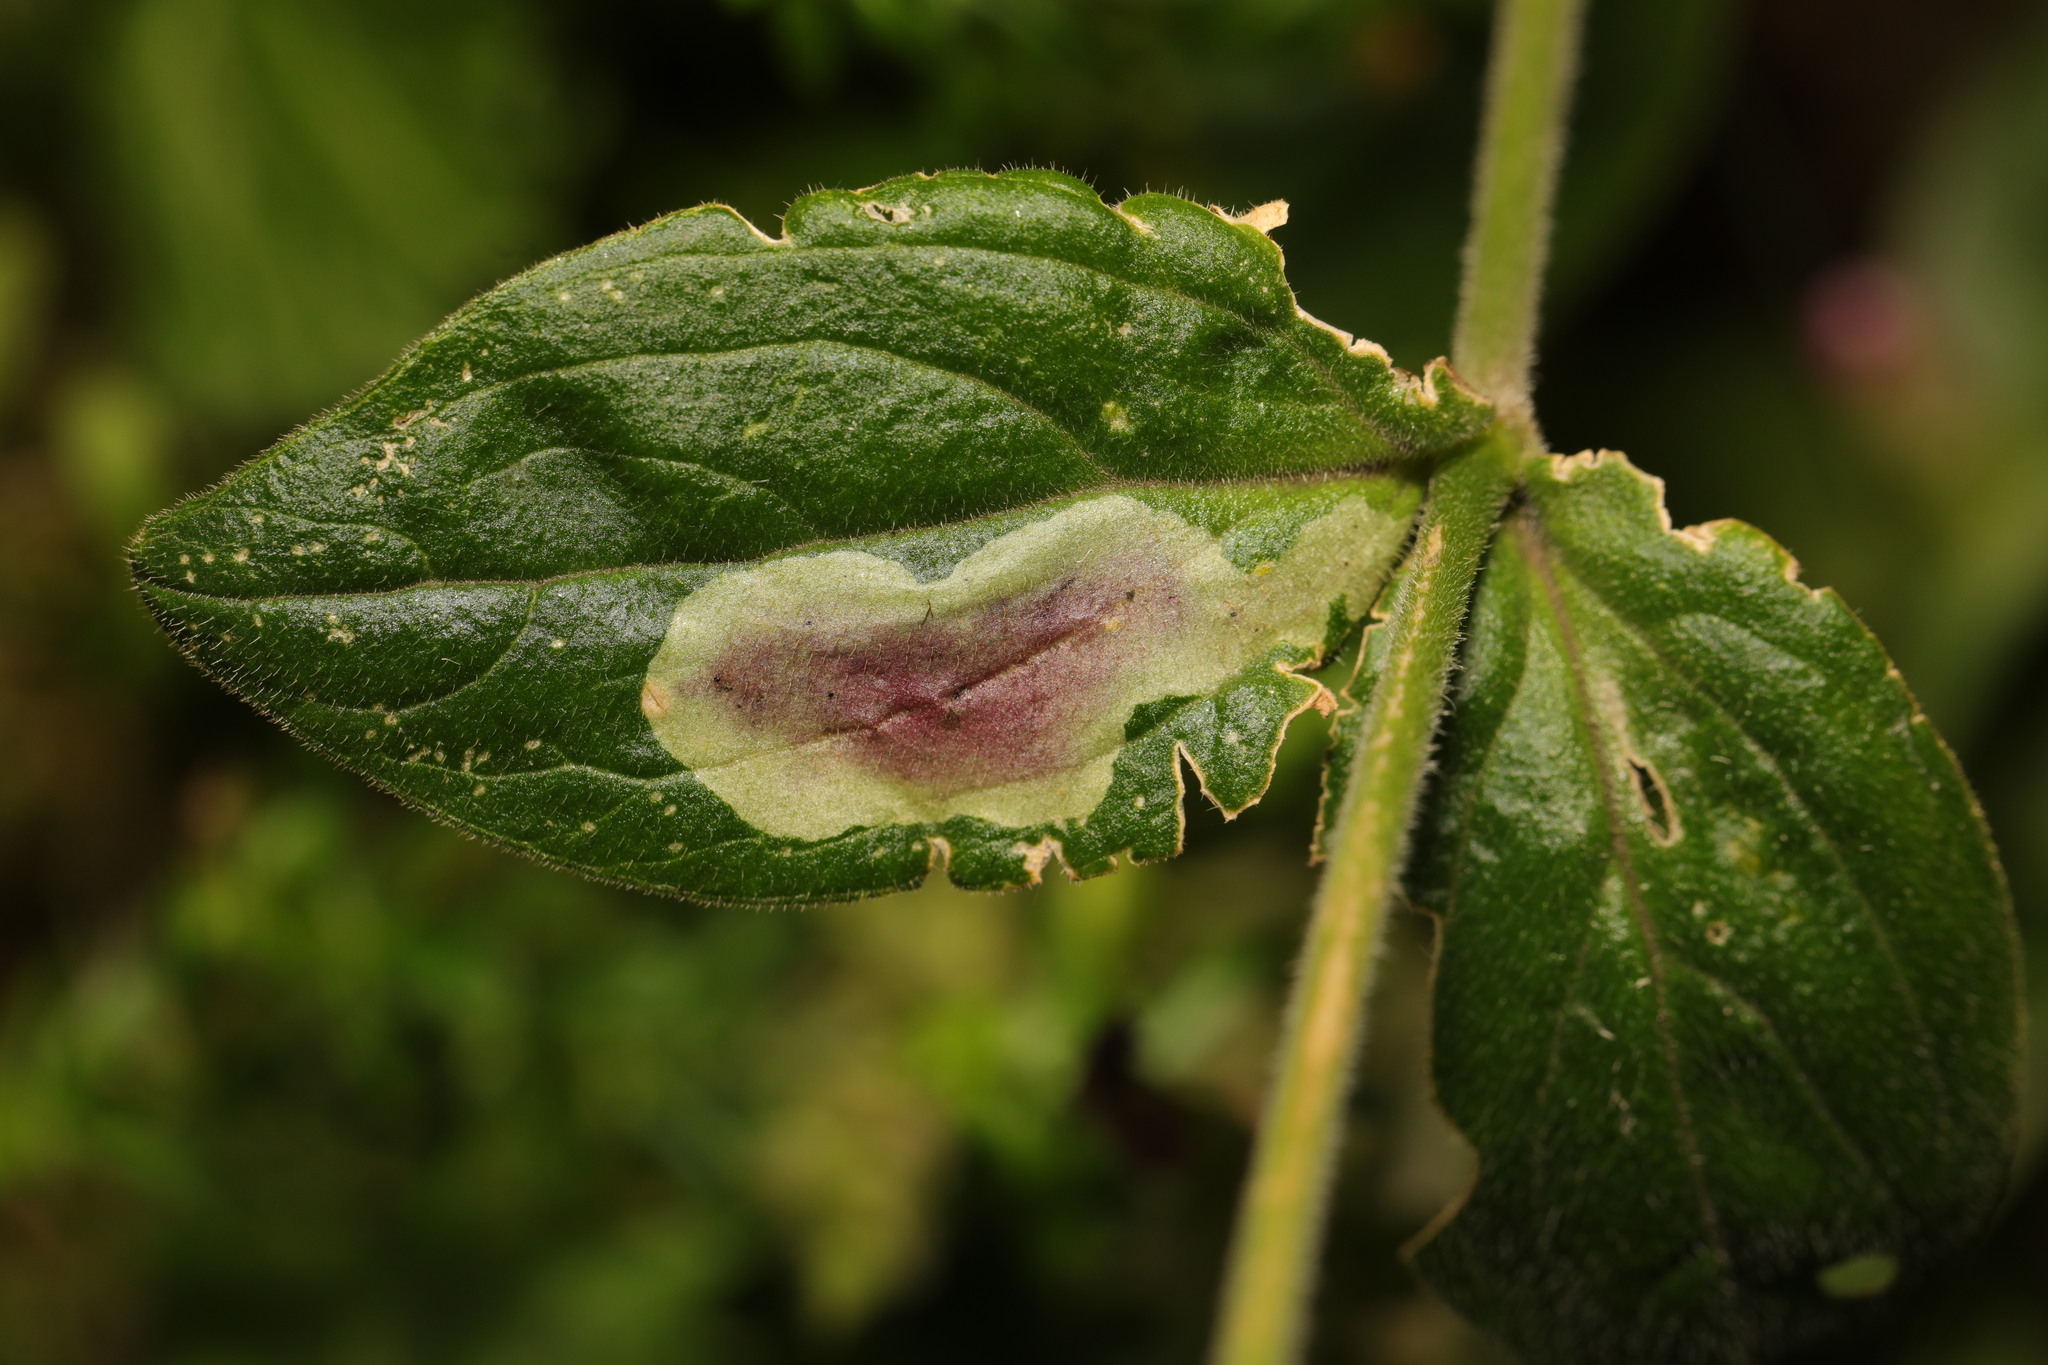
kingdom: Animalia
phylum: Arthropoda
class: Insecta
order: Diptera
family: Agromyzidae
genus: Amauromyza
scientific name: Amauromyza flavifrons
